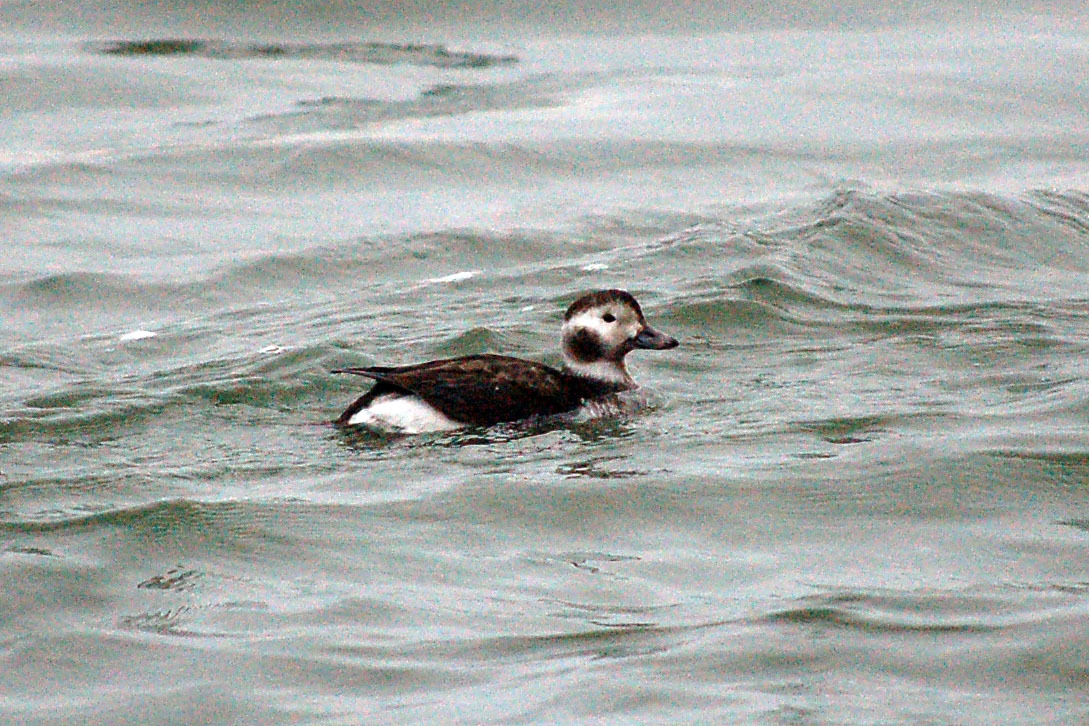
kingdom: Animalia
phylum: Chordata
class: Aves
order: Anseriformes
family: Anatidae
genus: Clangula
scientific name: Clangula hyemalis
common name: Long-tailed duck
